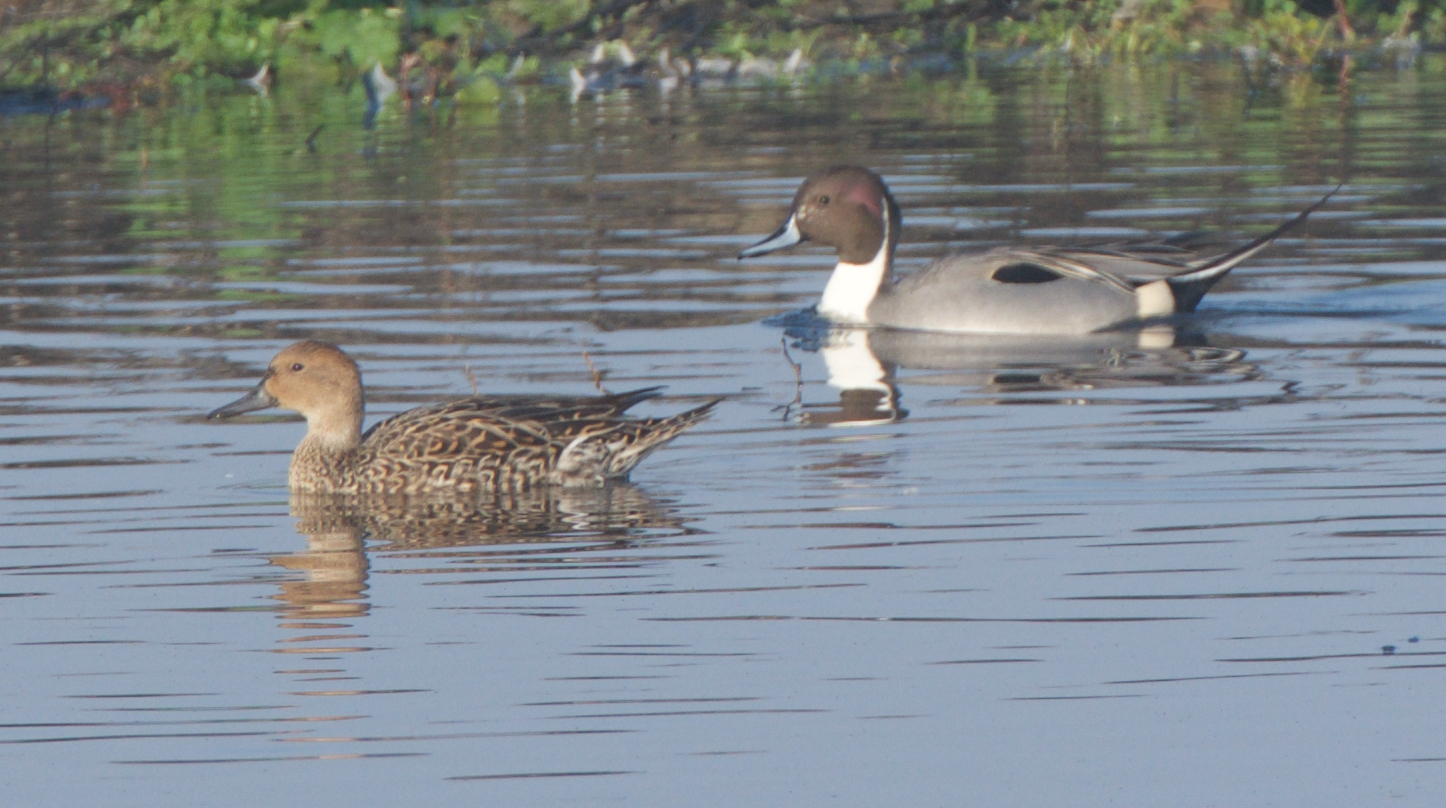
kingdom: Animalia
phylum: Chordata
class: Aves
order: Anseriformes
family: Anatidae
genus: Anas
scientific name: Anas acuta
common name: Northern pintail
